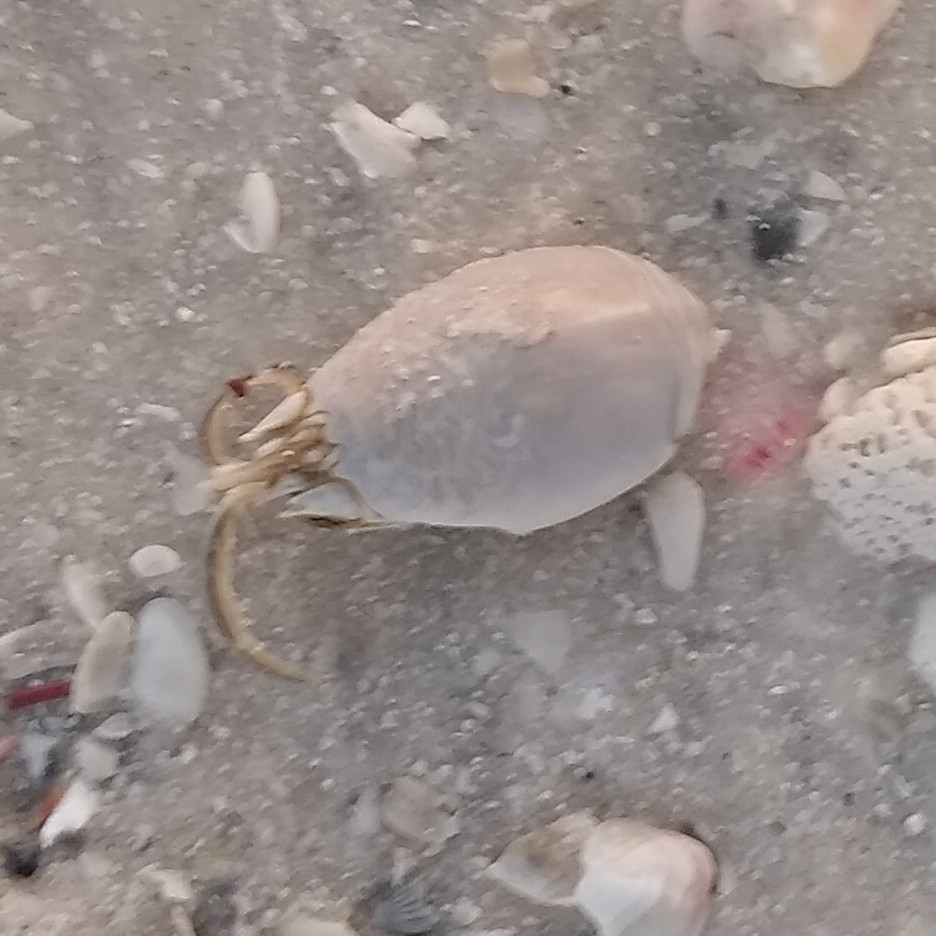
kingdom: Animalia
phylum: Arthropoda
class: Malacostraca
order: Decapoda
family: Hippidae
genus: Emerita
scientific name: Emerita talpoida
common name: Atlantic sand crab
